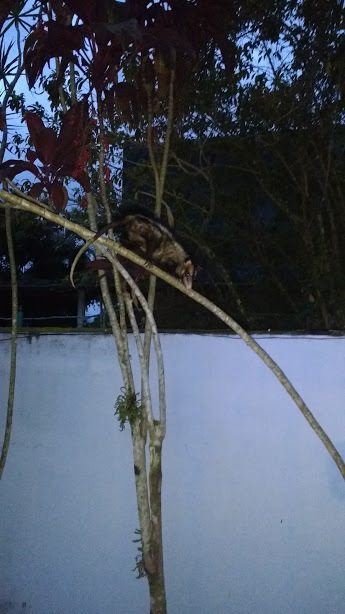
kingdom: Animalia
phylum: Chordata
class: Mammalia
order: Didelphimorphia
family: Didelphidae
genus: Didelphis
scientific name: Didelphis aurita
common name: Big-eared opossum
